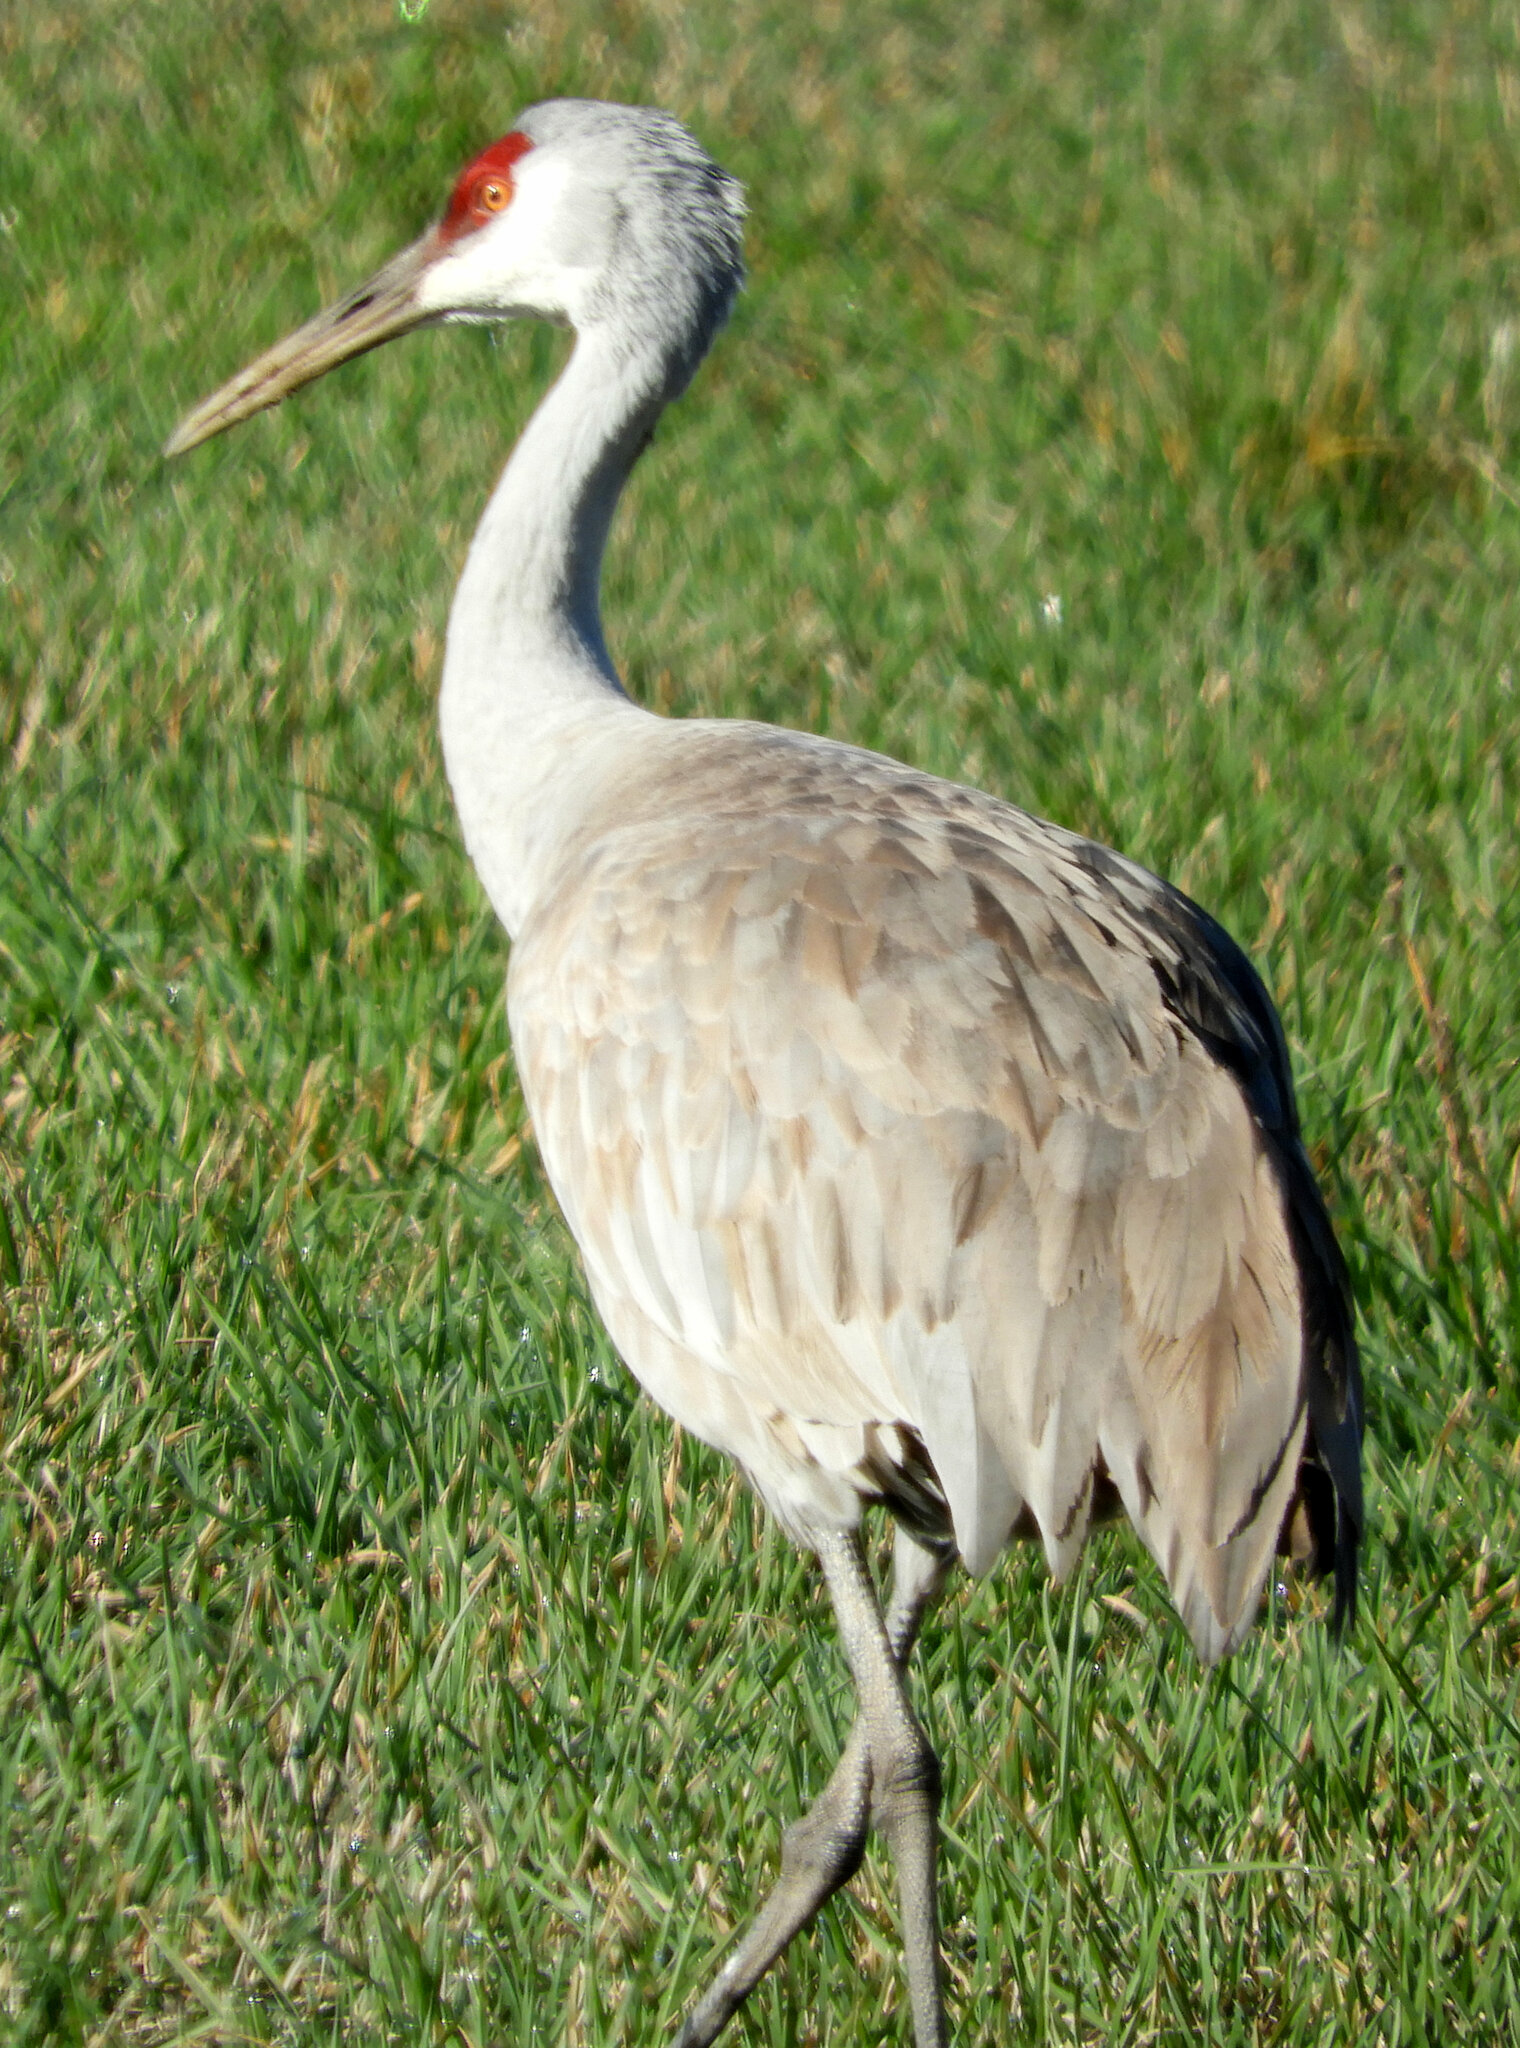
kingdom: Animalia
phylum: Chordata
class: Aves
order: Gruiformes
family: Gruidae
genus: Grus
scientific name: Grus canadensis
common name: Sandhill crane
